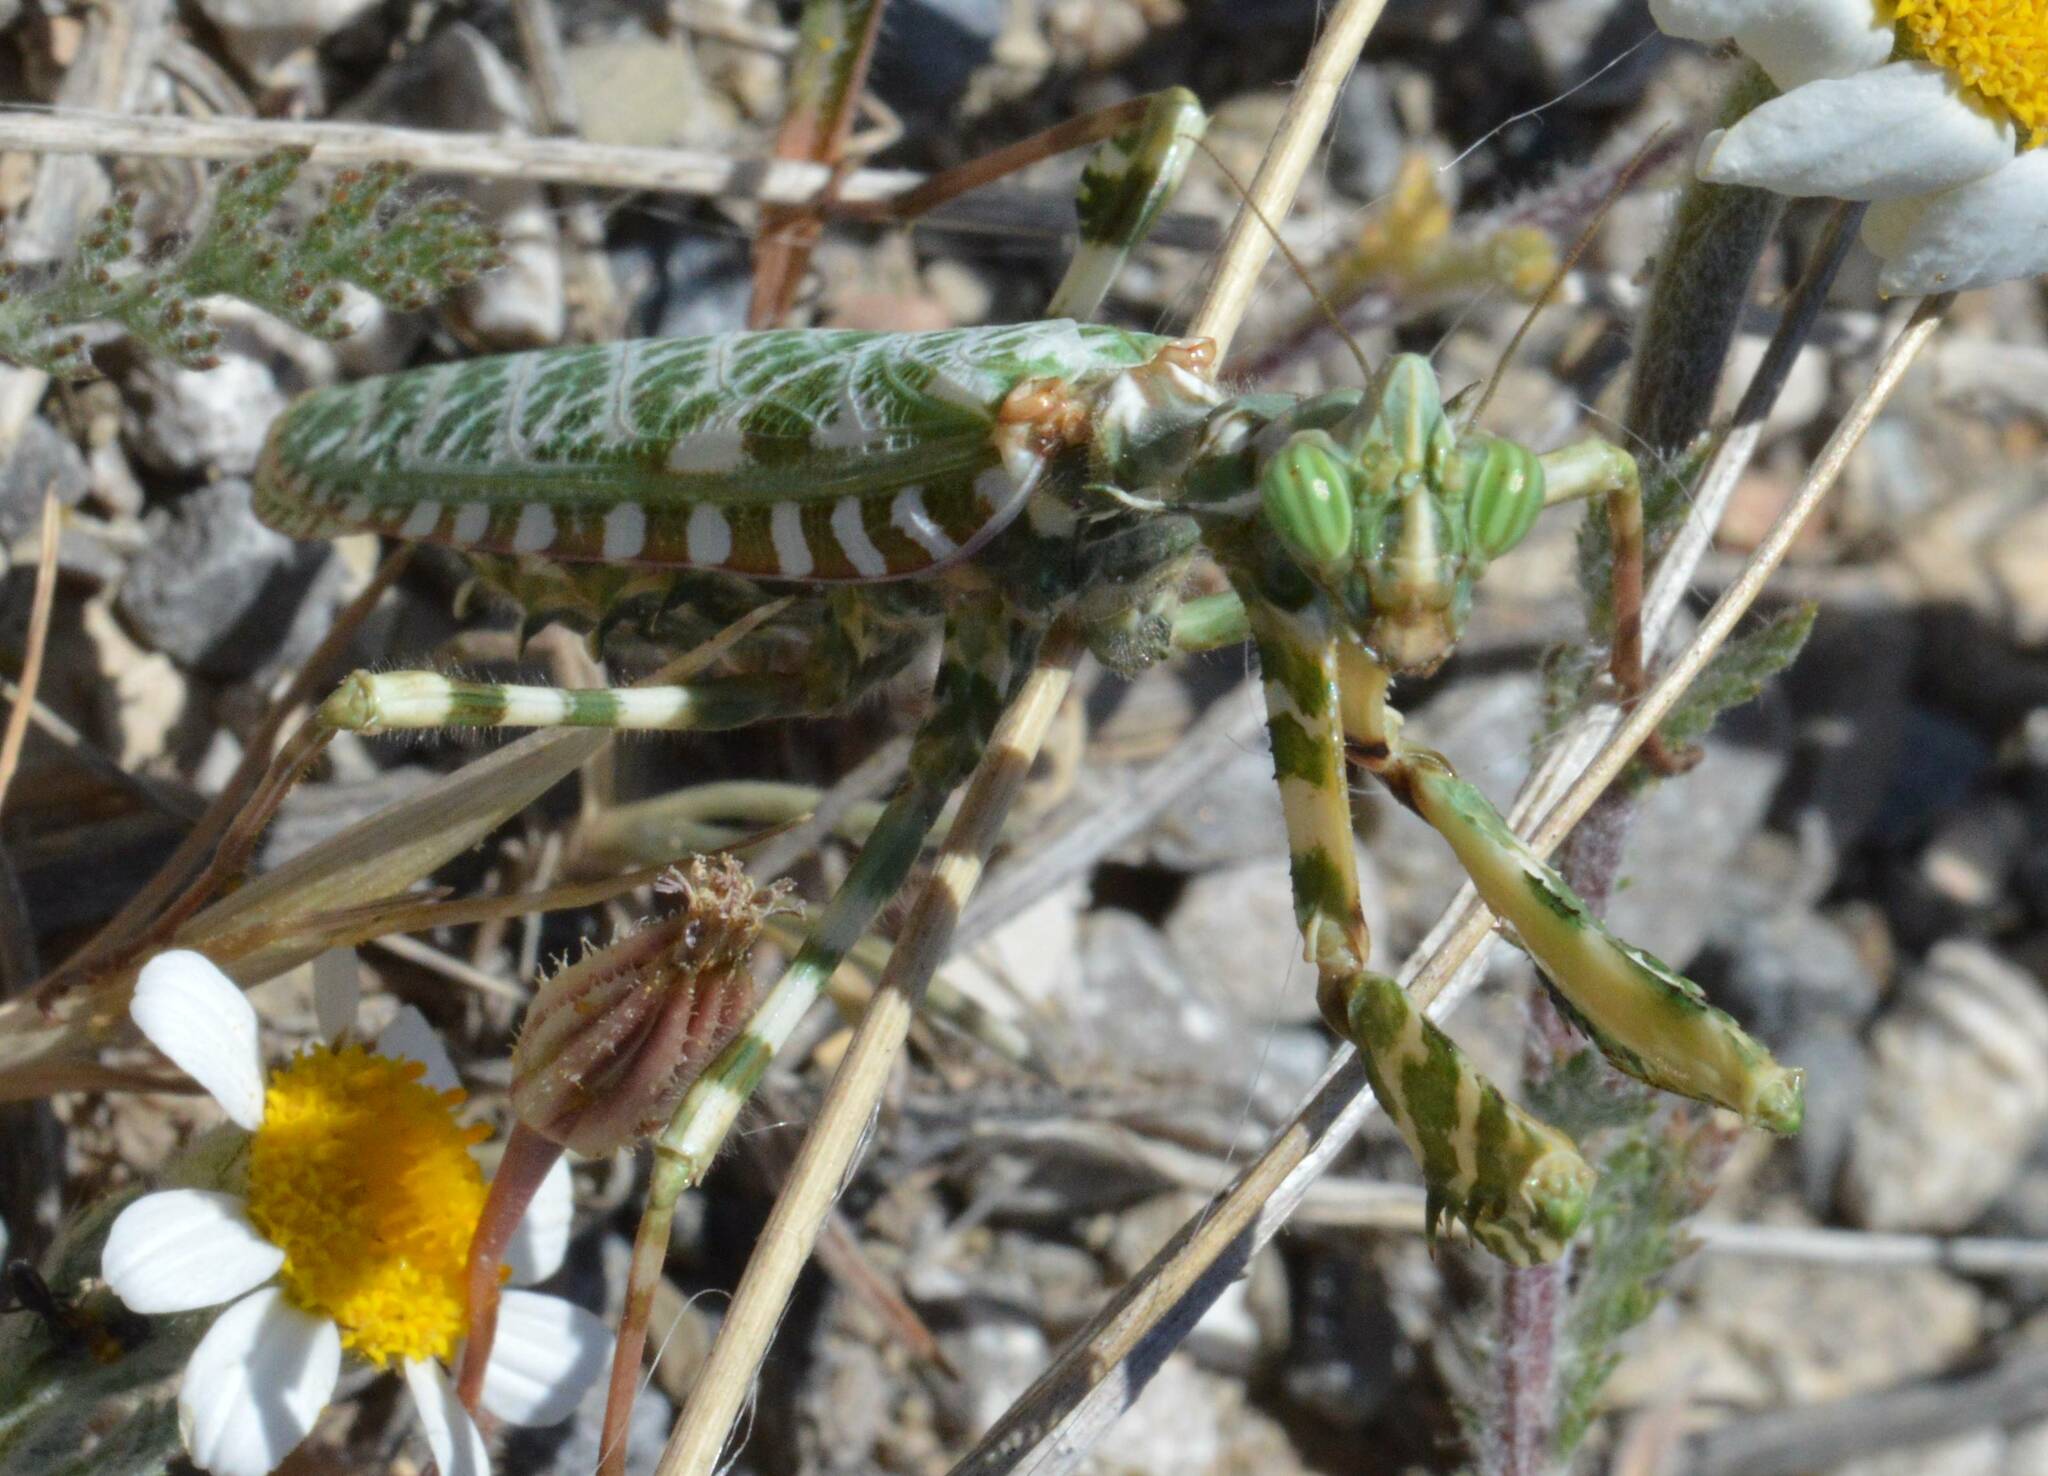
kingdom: Animalia
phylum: Arthropoda
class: Insecta
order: Mantodea
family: Empusidae
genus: Blepharopsis
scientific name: Blepharopsis mendica
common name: Devil's flower mantis
